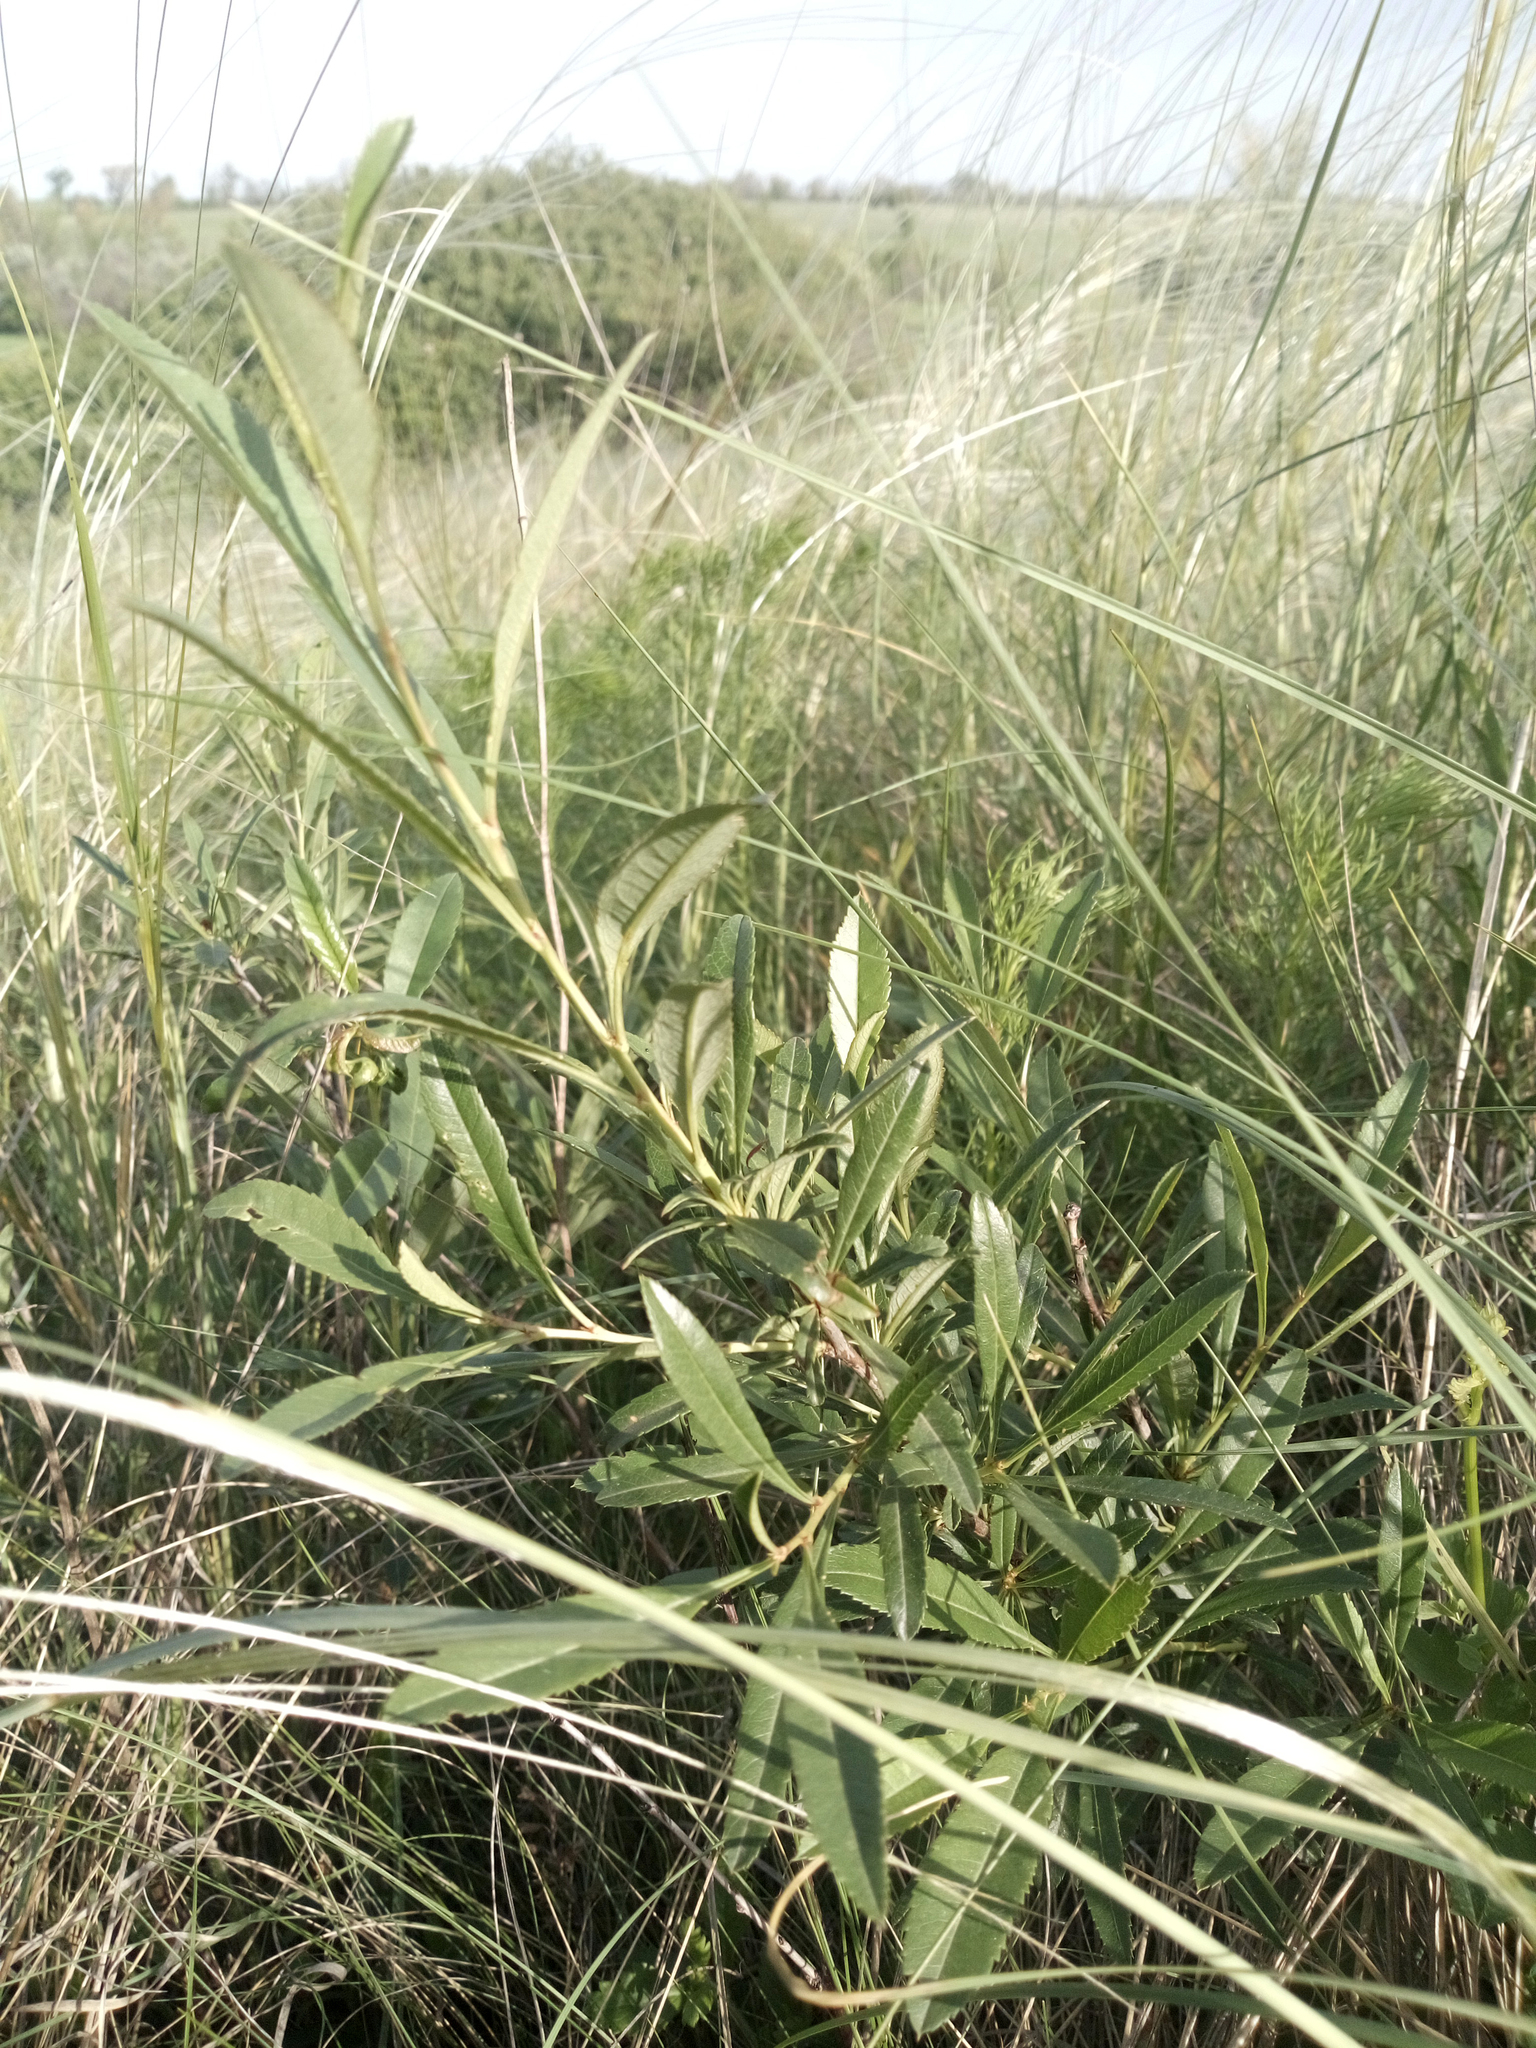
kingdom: Plantae
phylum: Tracheophyta
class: Magnoliopsida
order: Rosales
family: Rosaceae
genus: Prunus
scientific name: Prunus tenella
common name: Dwarf russian almond
